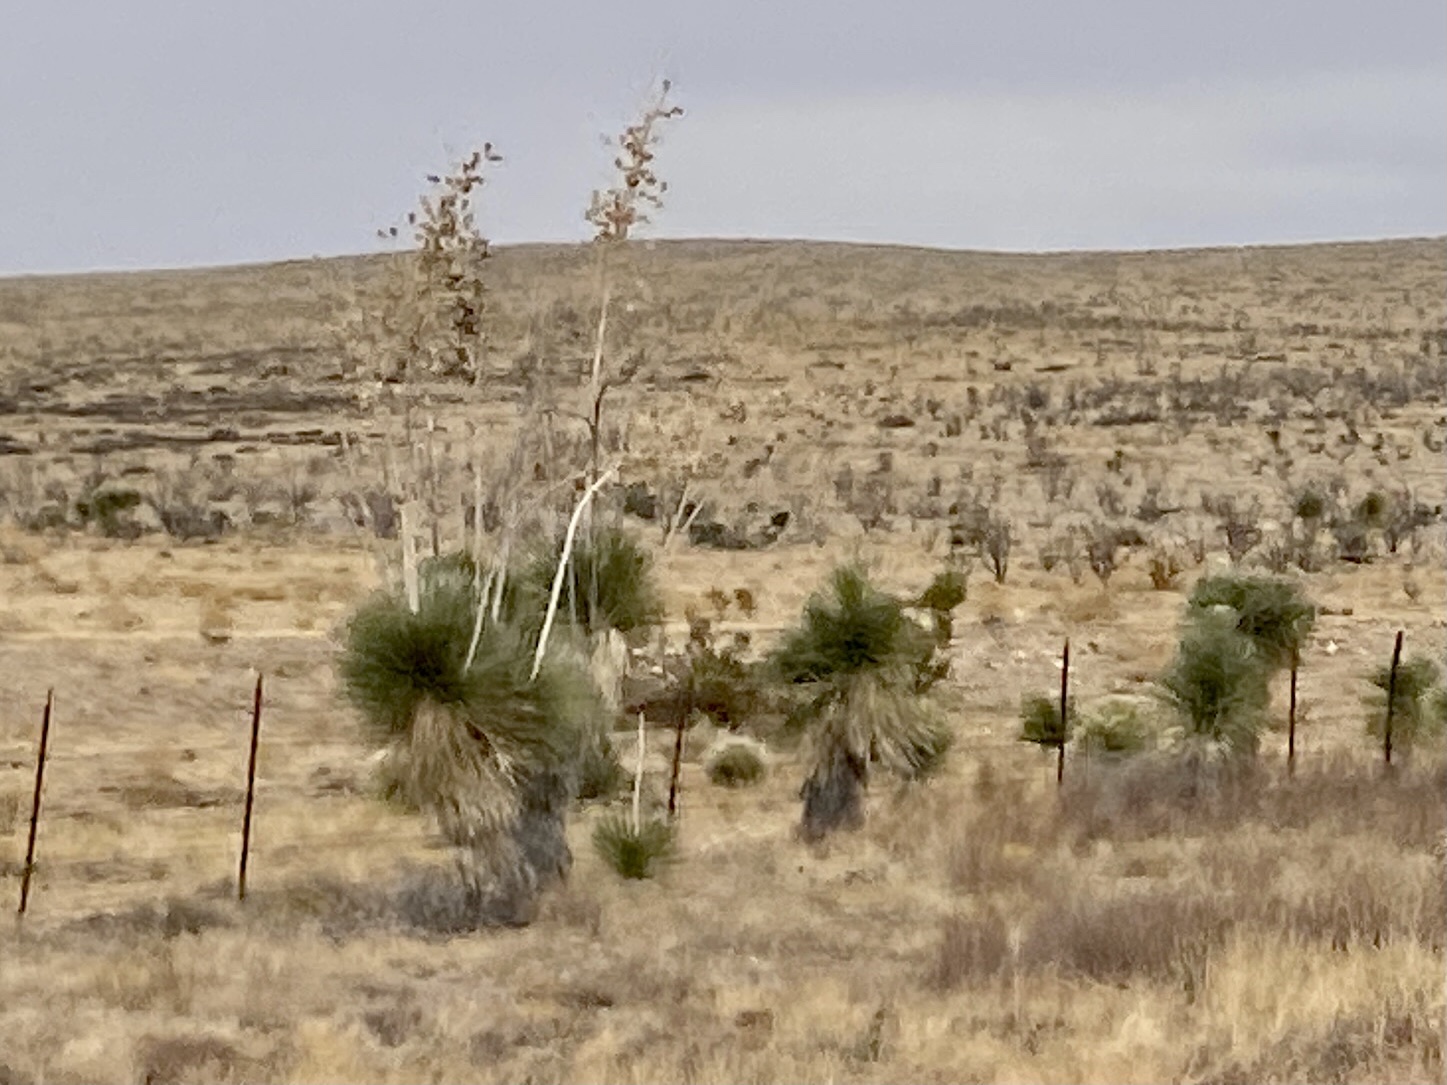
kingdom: Plantae
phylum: Tracheophyta
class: Liliopsida
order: Asparagales
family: Asparagaceae
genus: Yucca
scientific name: Yucca elata
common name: Palmella
